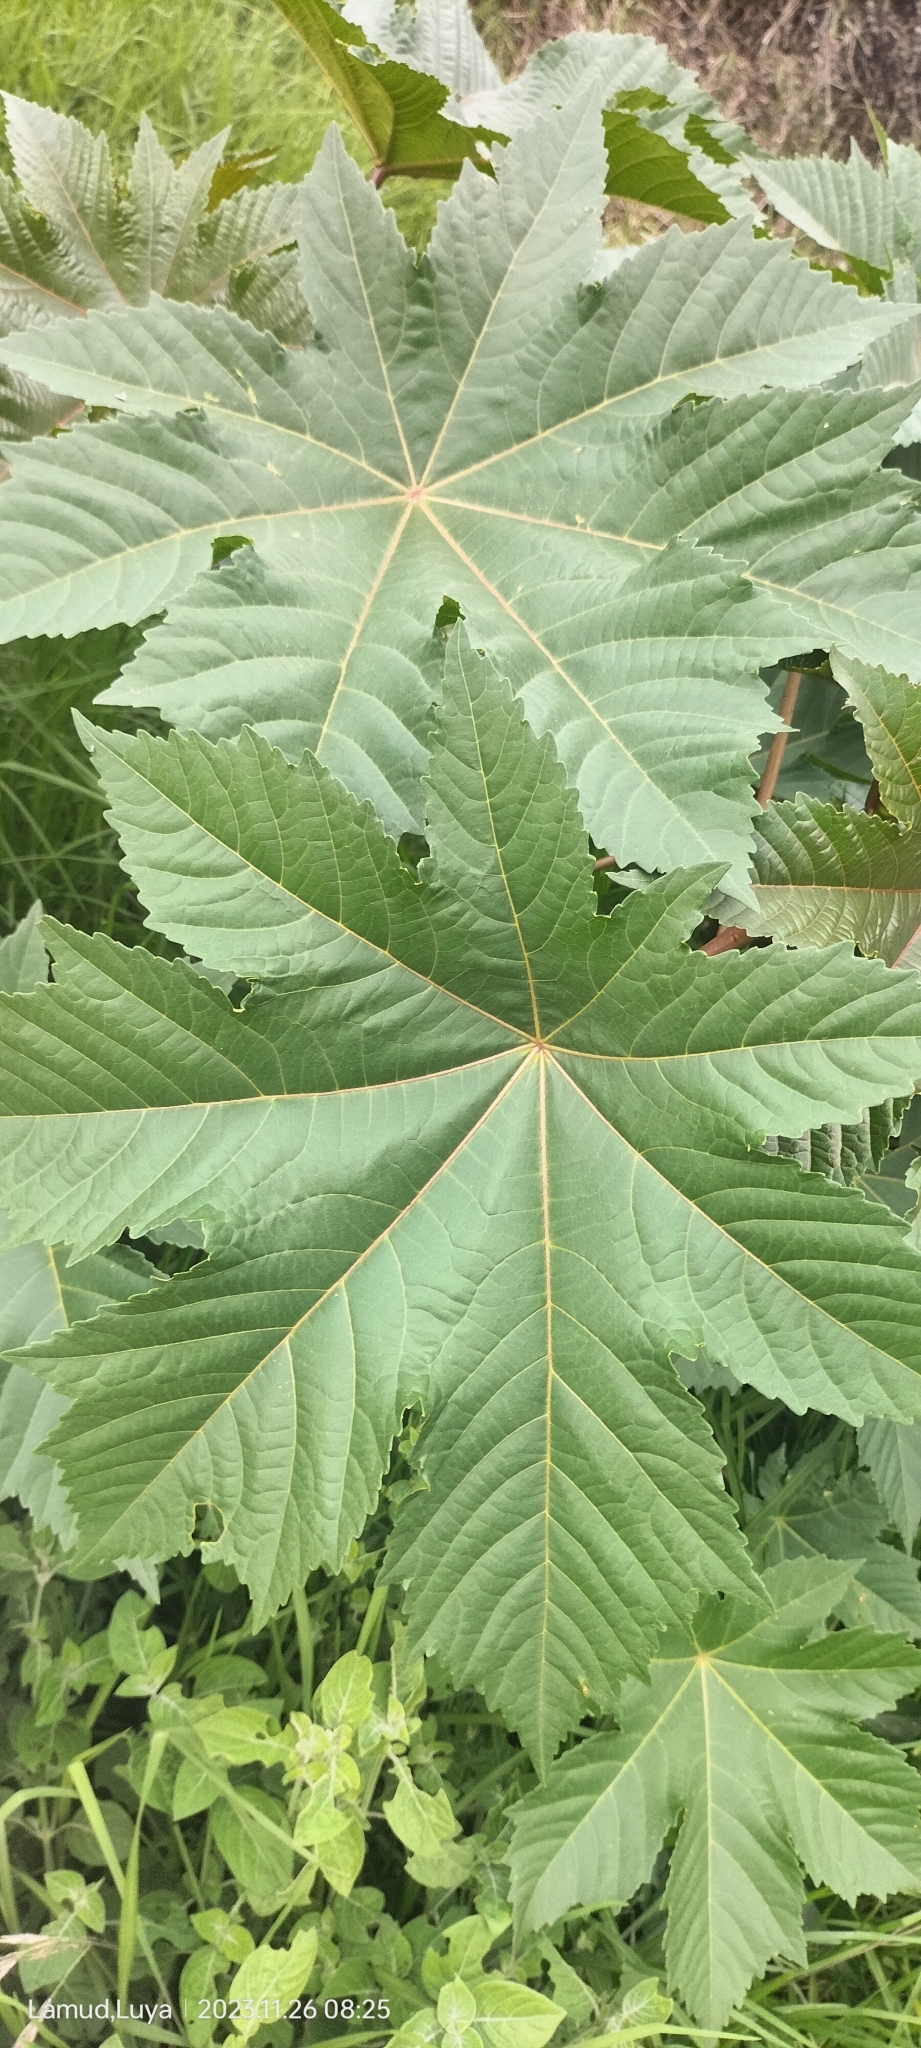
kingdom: Plantae
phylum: Tracheophyta
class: Magnoliopsida
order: Malpighiales
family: Euphorbiaceae
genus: Ricinus
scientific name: Ricinus communis
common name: Castor-oil-plant
